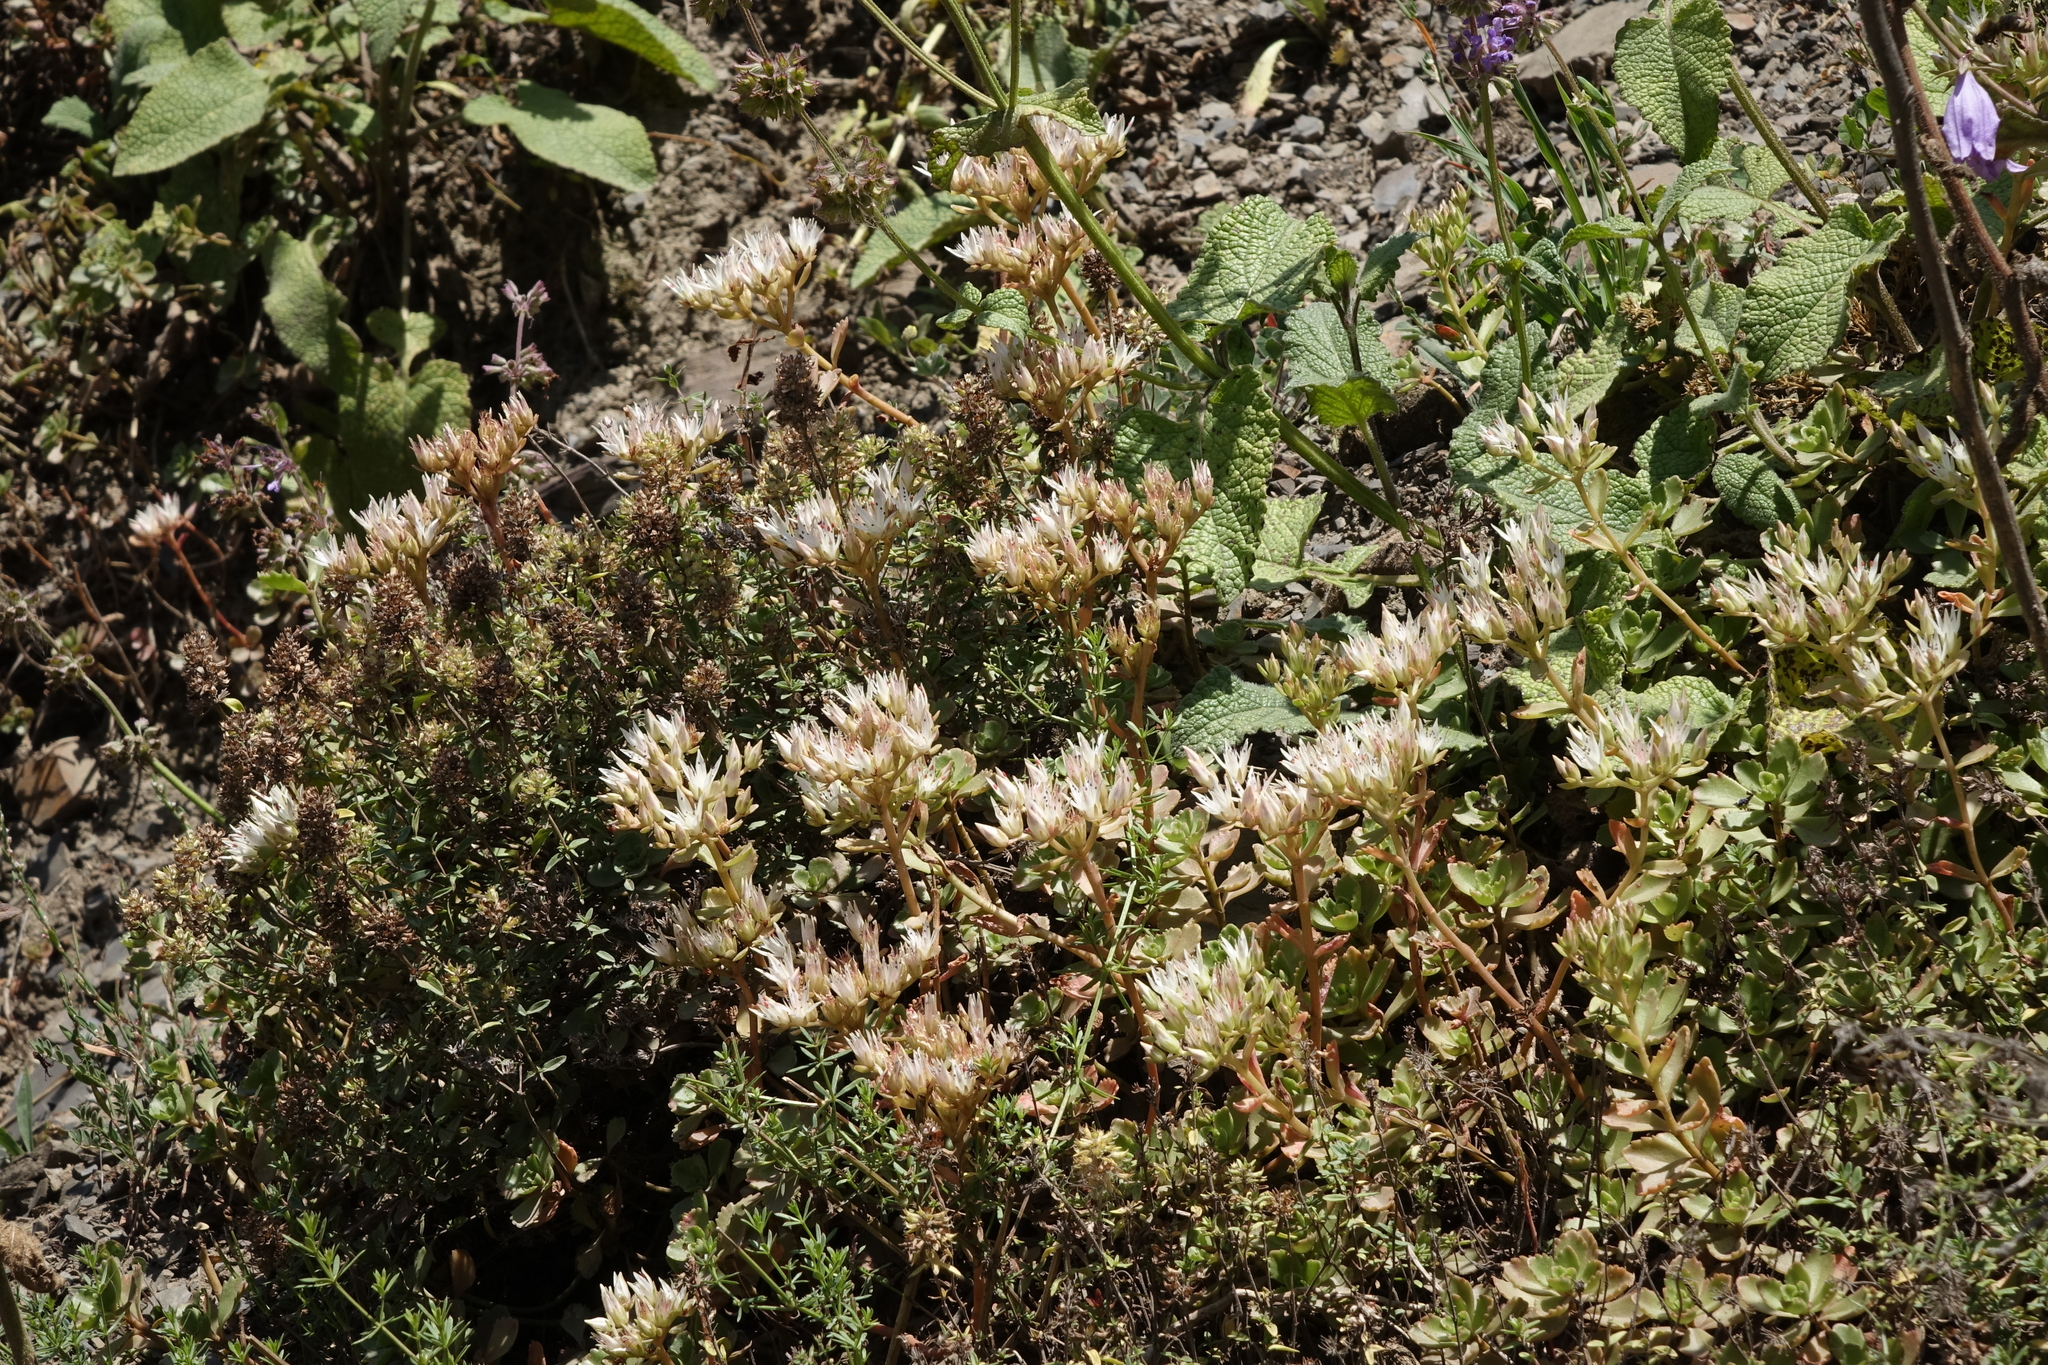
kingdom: Plantae
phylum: Tracheophyta
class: Magnoliopsida
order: Saxifragales
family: Crassulaceae
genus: Phedimus
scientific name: Phedimus spurius
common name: Caucasian stonecrop
